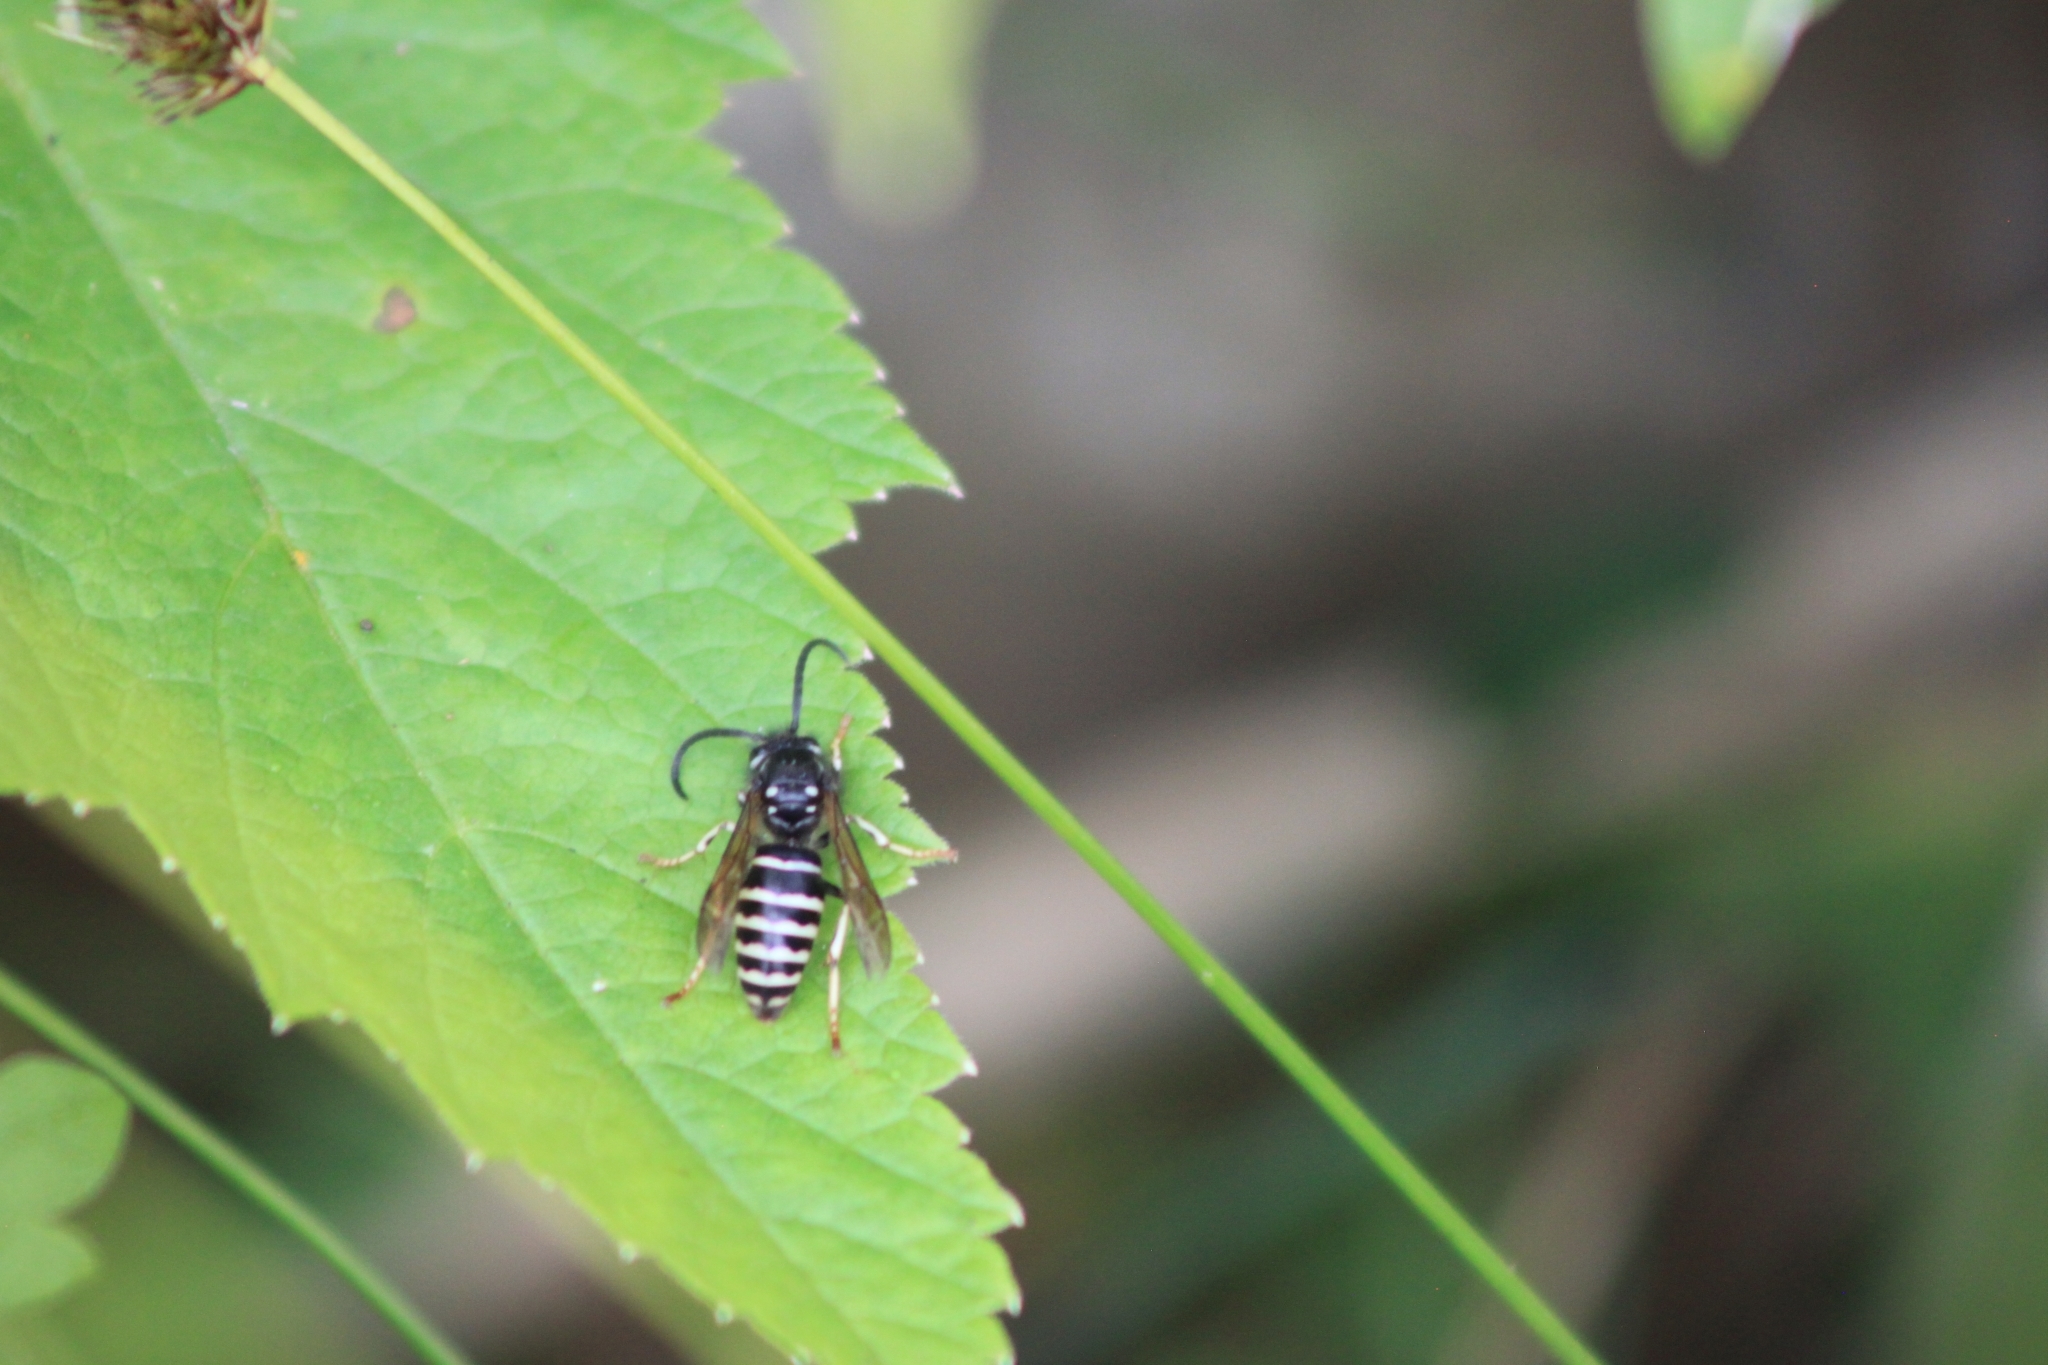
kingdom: Animalia
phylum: Arthropoda
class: Insecta
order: Hymenoptera
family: Vespidae
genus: Dolichovespula
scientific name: Dolichovespula adulterina
